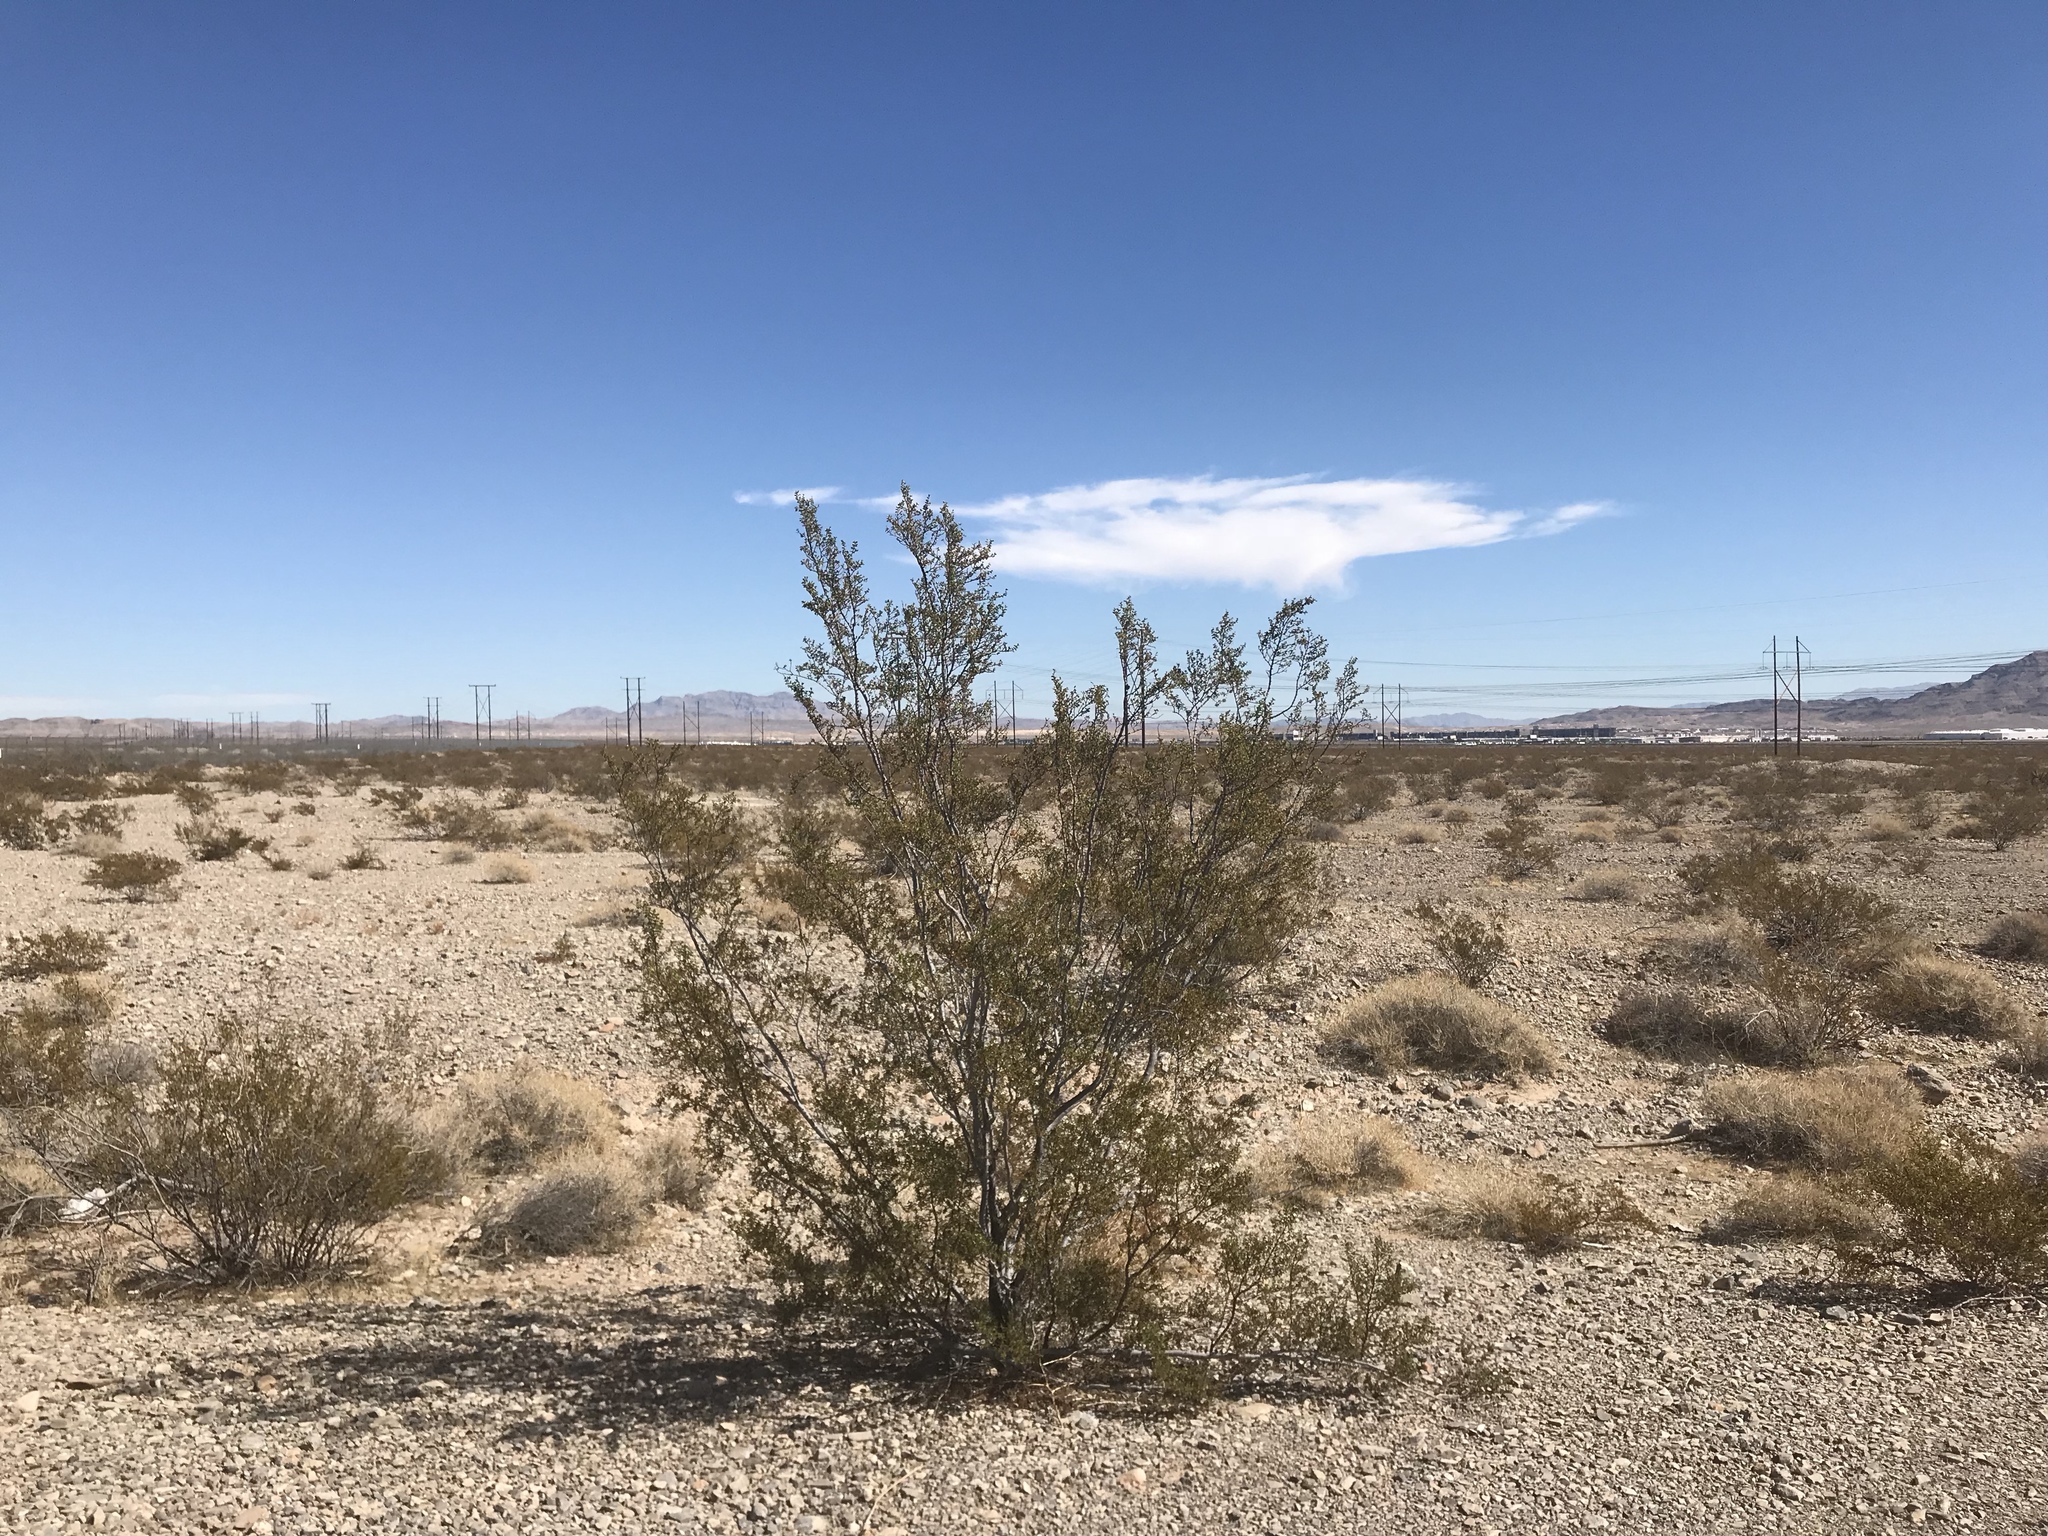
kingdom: Plantae
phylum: Tracheophyta
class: Magnoliopsida
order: Zygophyllales
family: Zygophyllaceae
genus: Larrea
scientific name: Larrea tridentata
